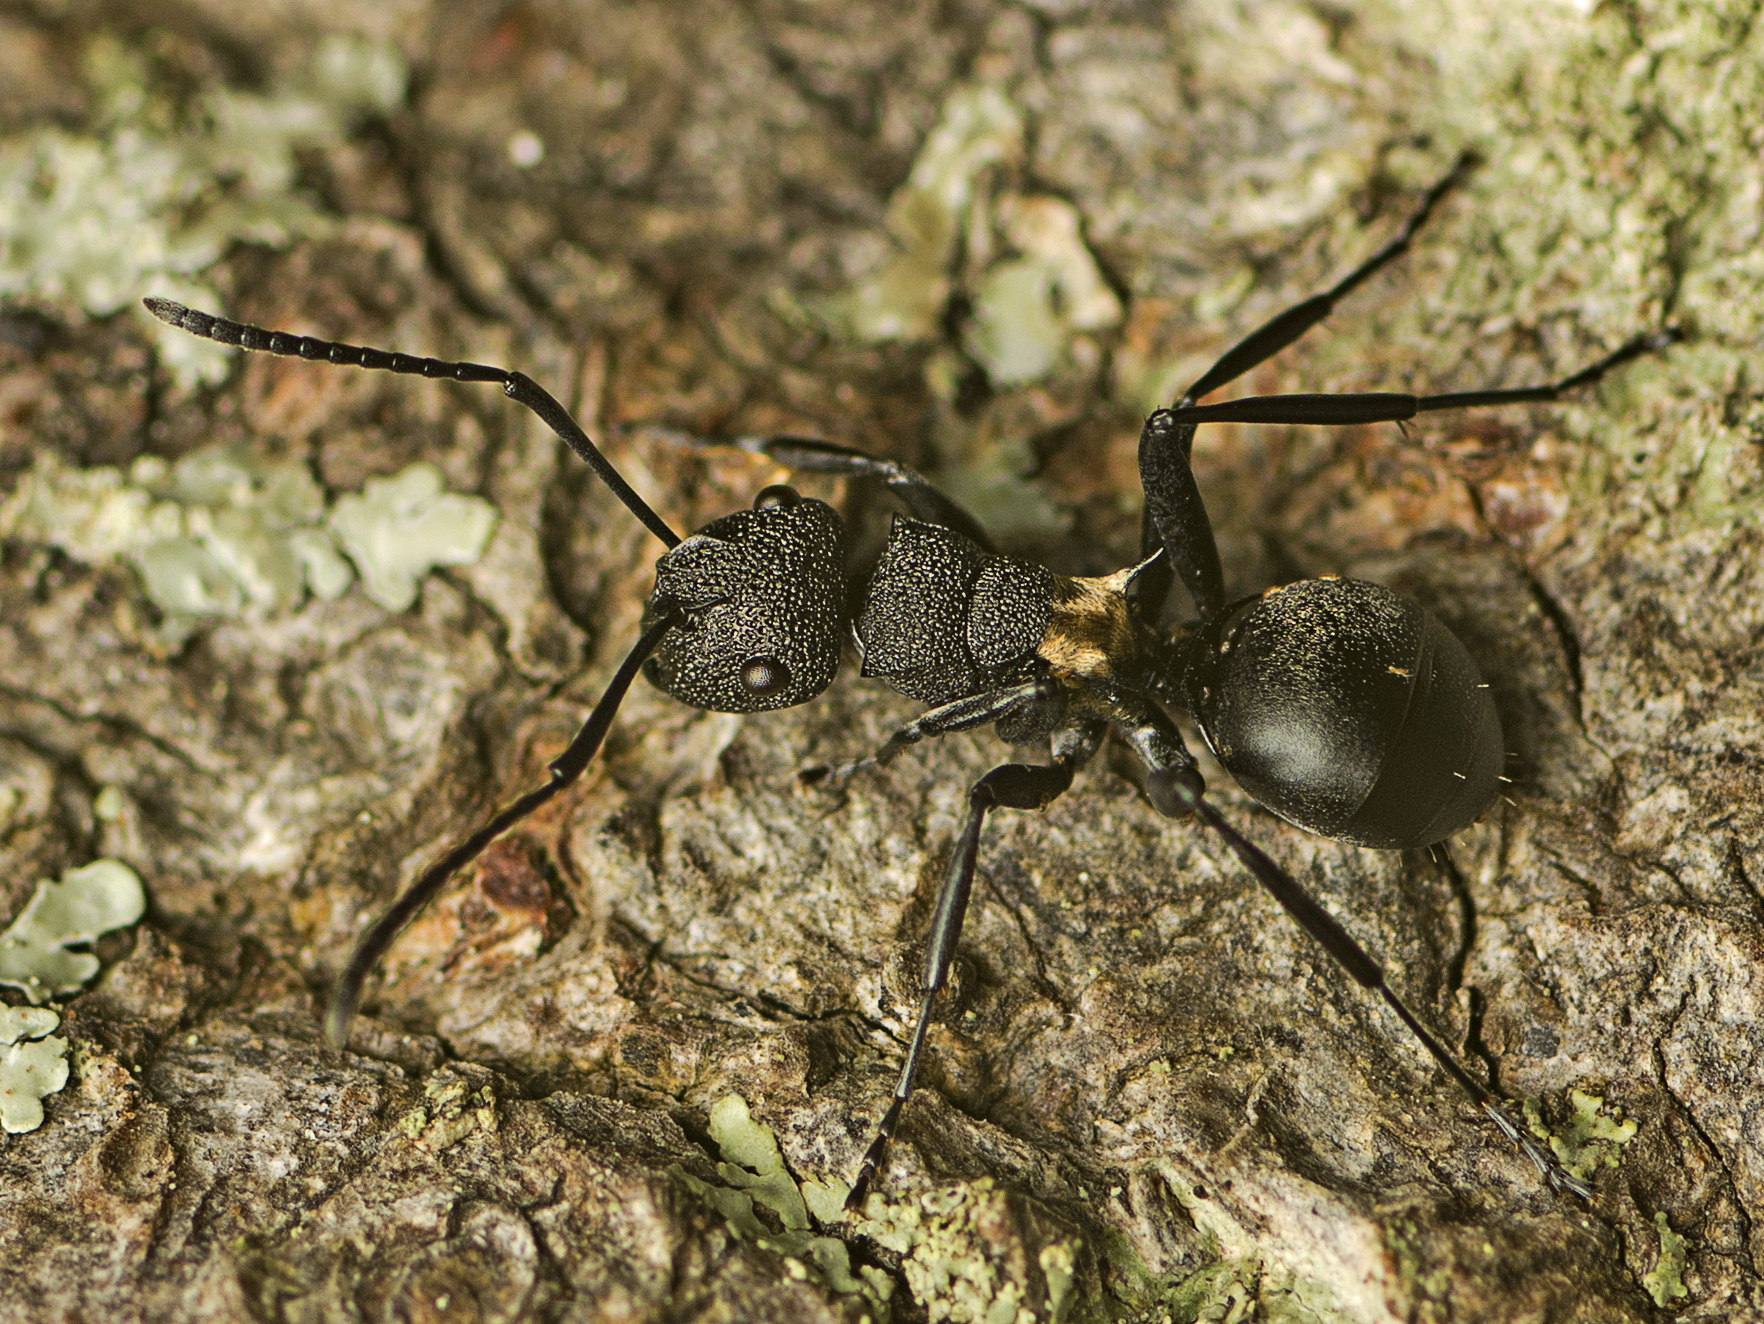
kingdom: Animalia
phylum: Arthropoda
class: Insecta
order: Hymenoptera
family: Formicidae
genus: Polyrhachis
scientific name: Polyrhachis machaon
